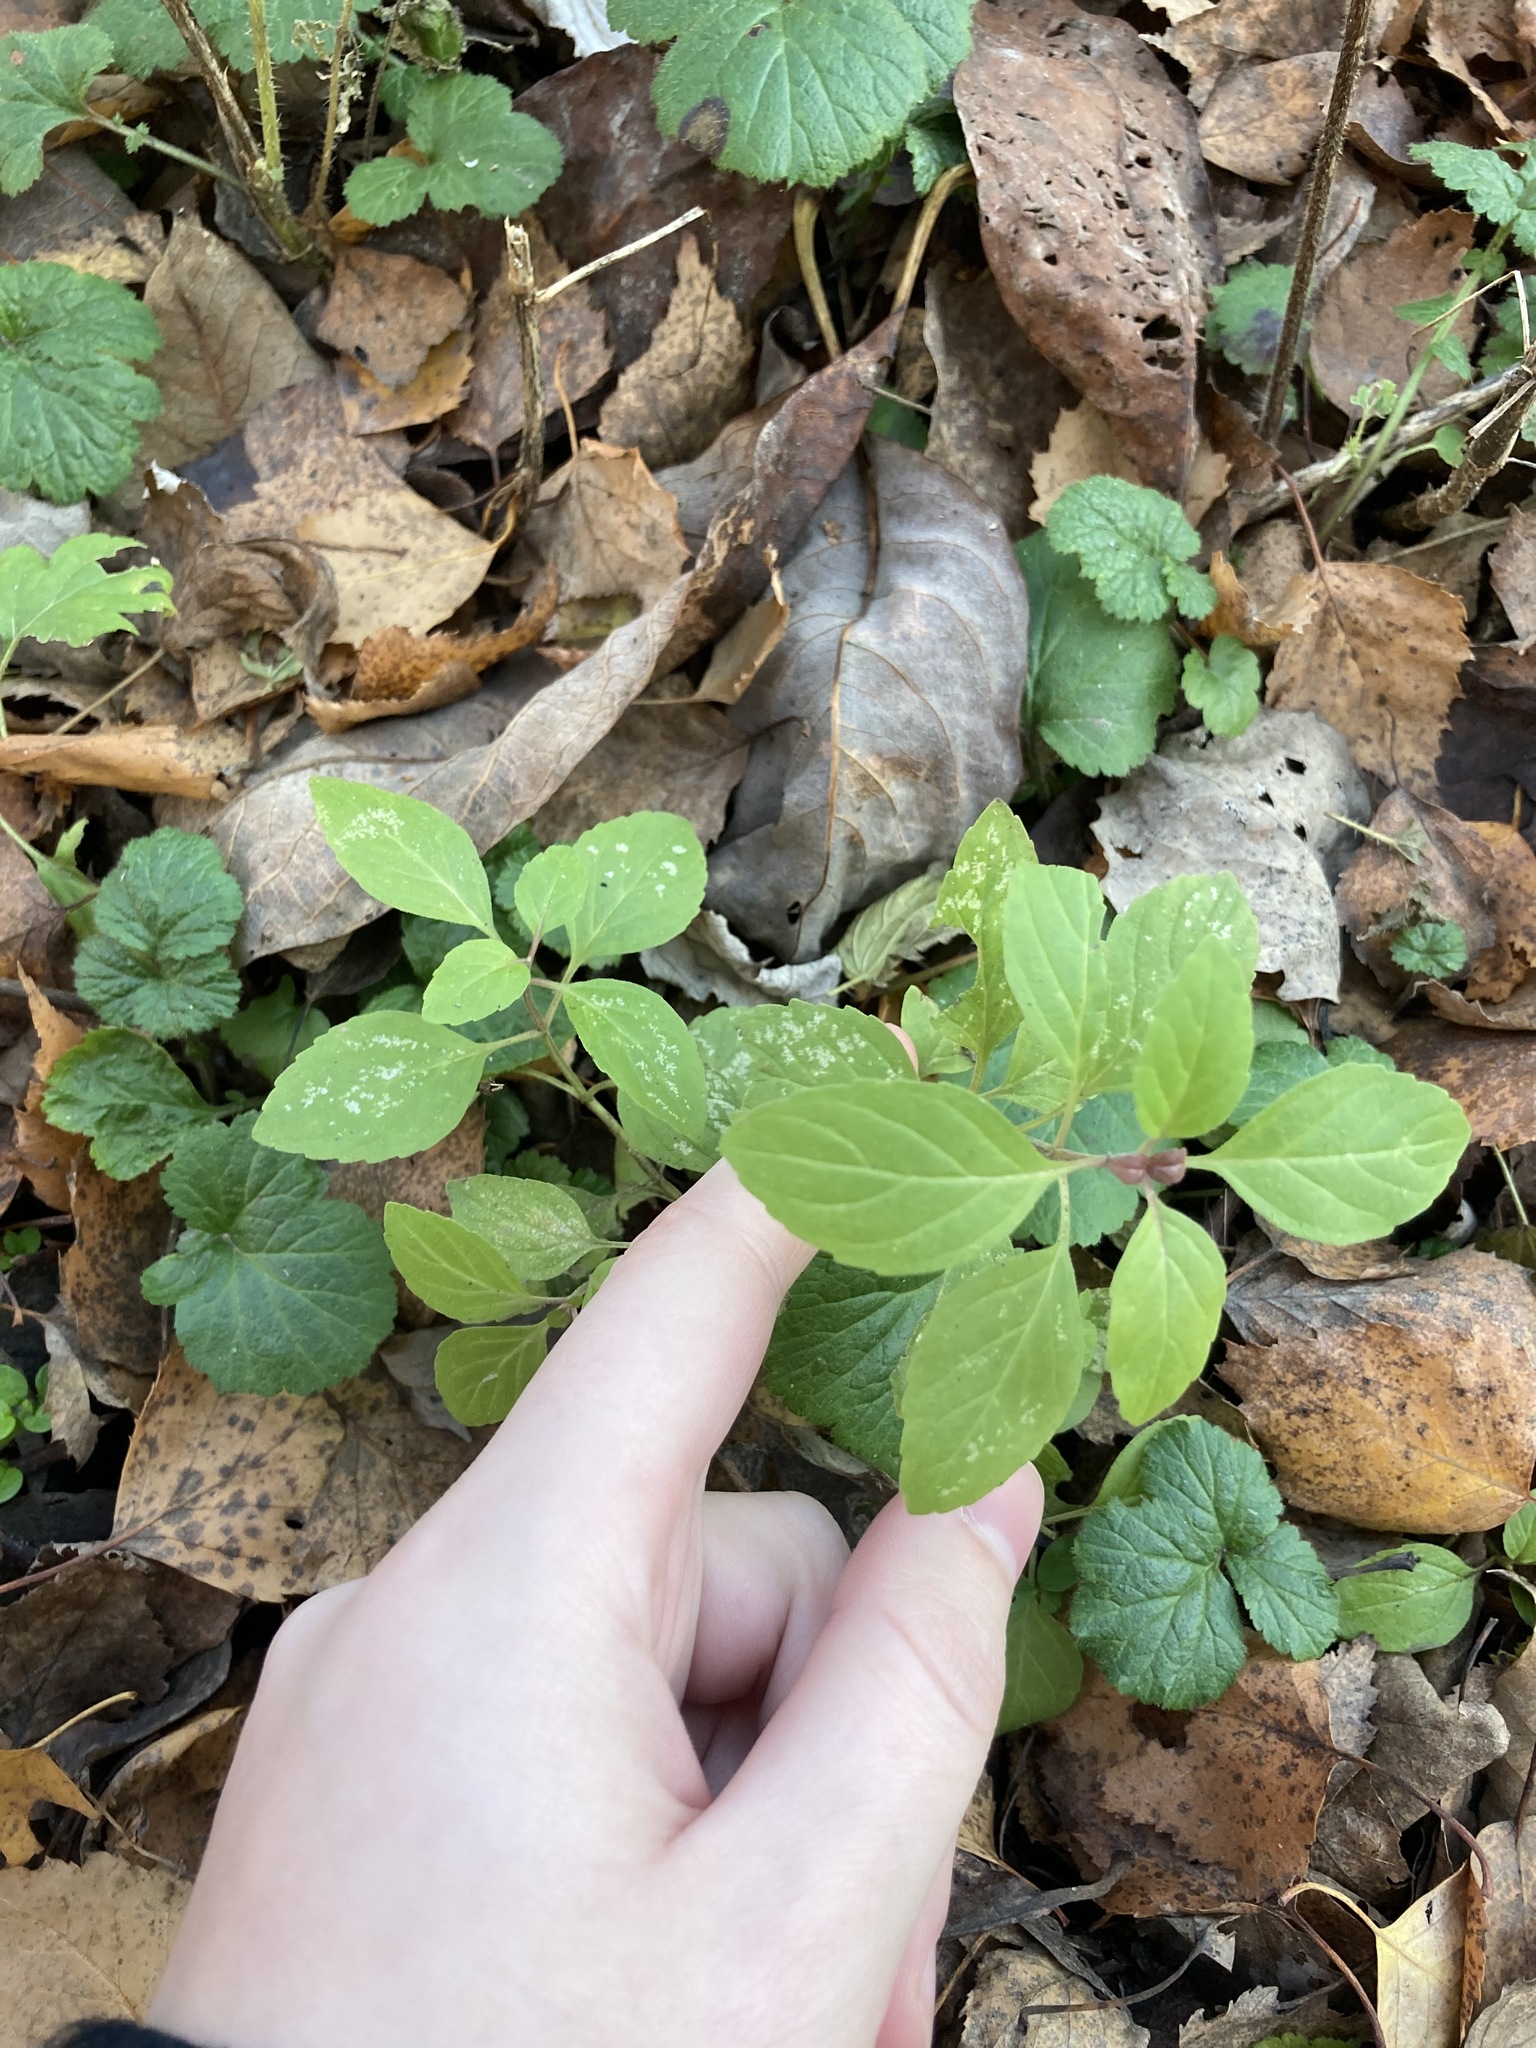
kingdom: Plantae
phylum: Tracheophyta
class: Magnoliopsida
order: Lamiales
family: Lamiaceae
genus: Mentha
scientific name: Mentha arvensis
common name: Corn mint
